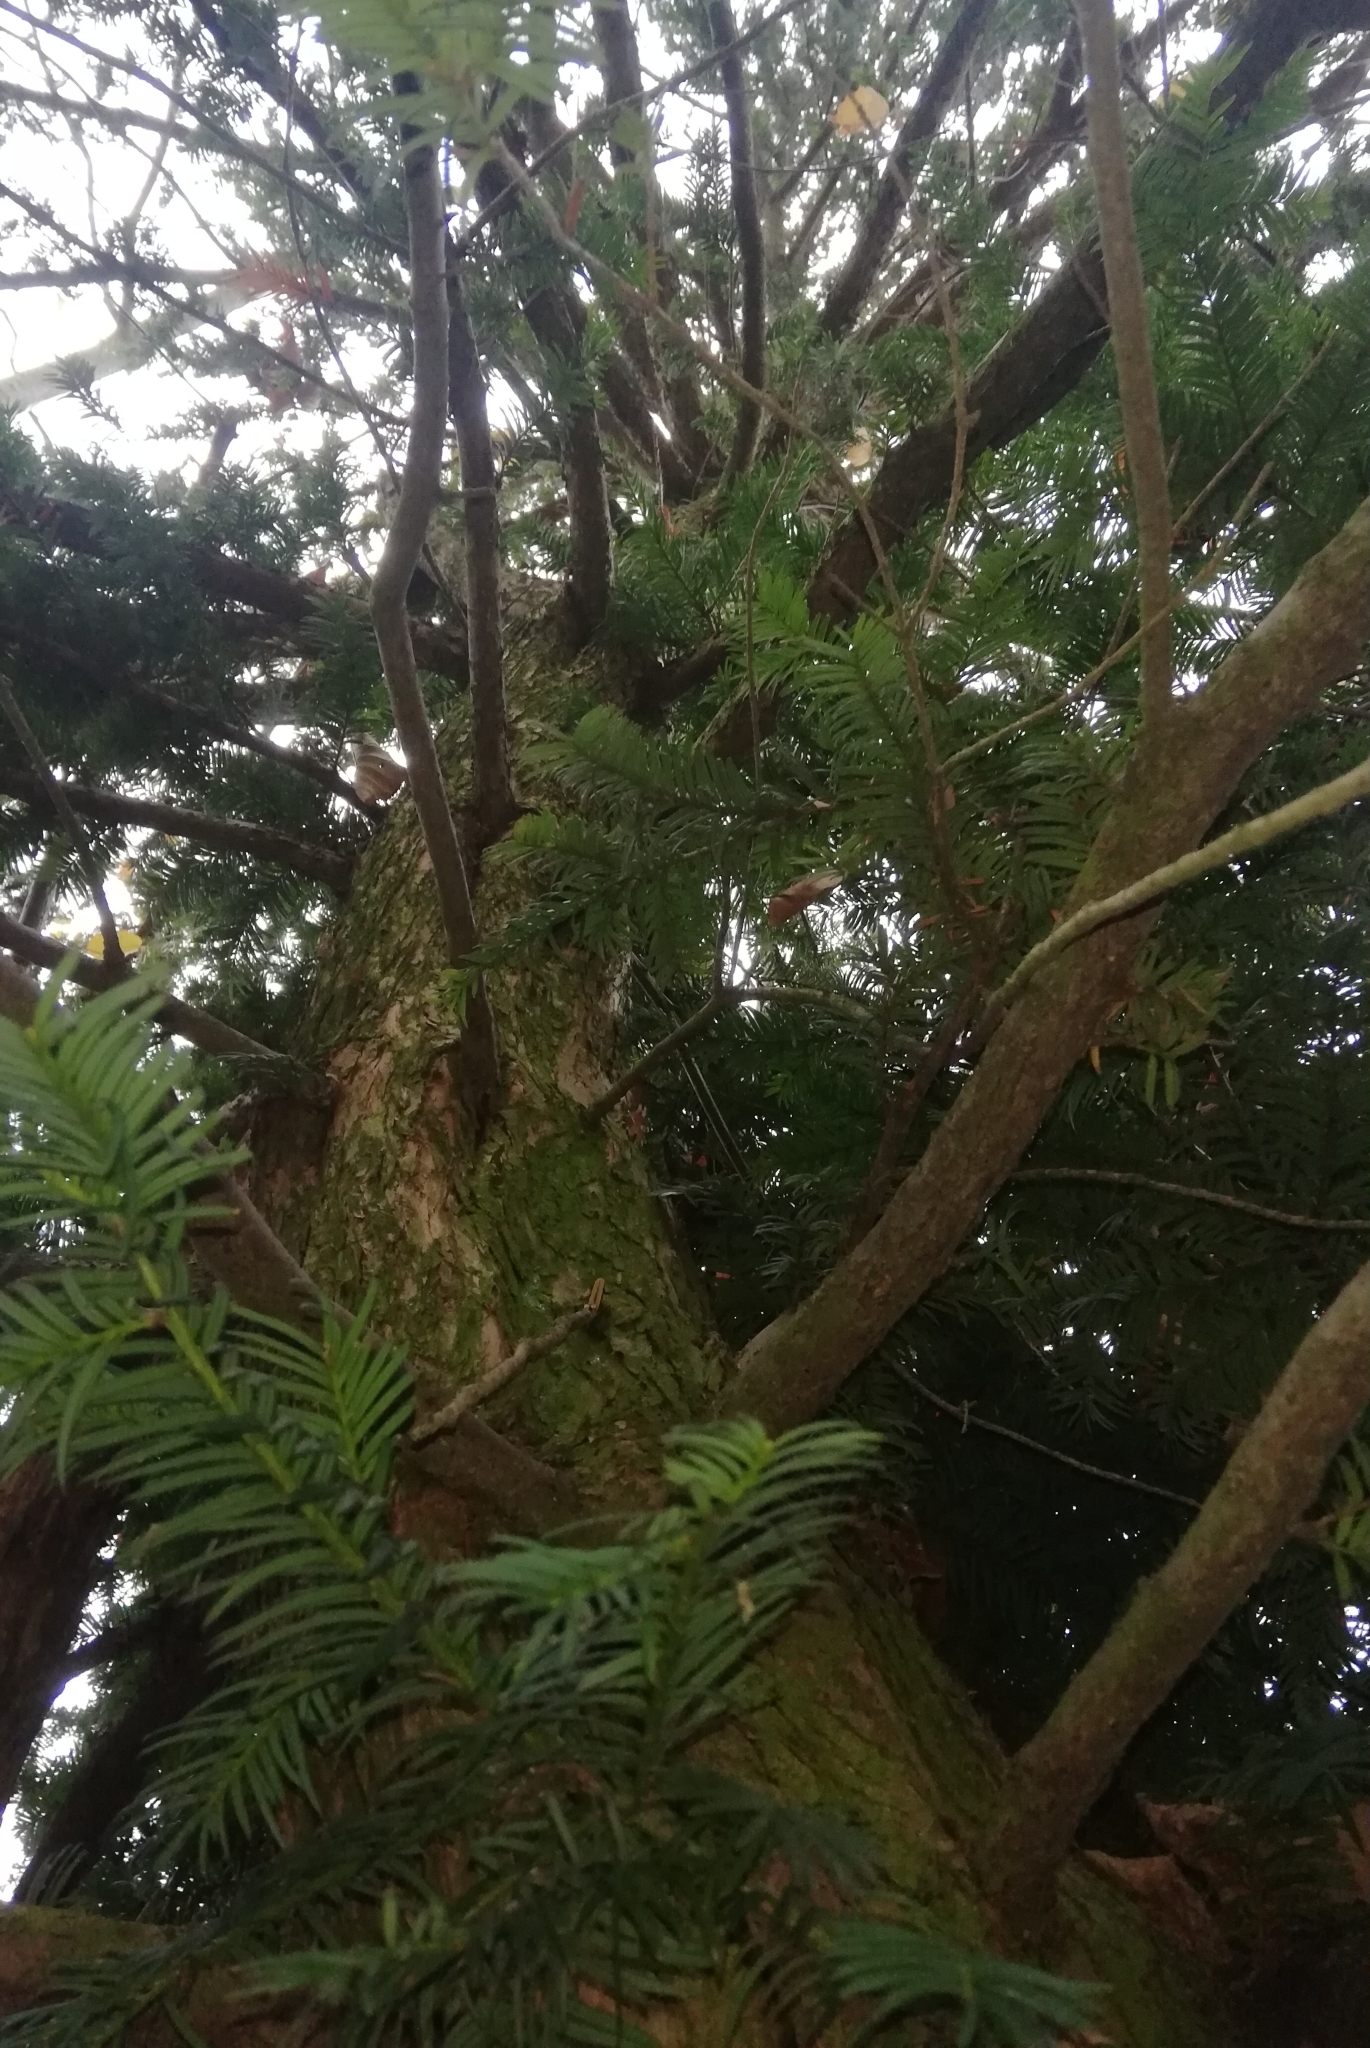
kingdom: Plantae
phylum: Tracheophyta
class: Pinopsida
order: Pinales
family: Taxaceae
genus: Taxus
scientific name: Taxus baccata
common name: Yew
